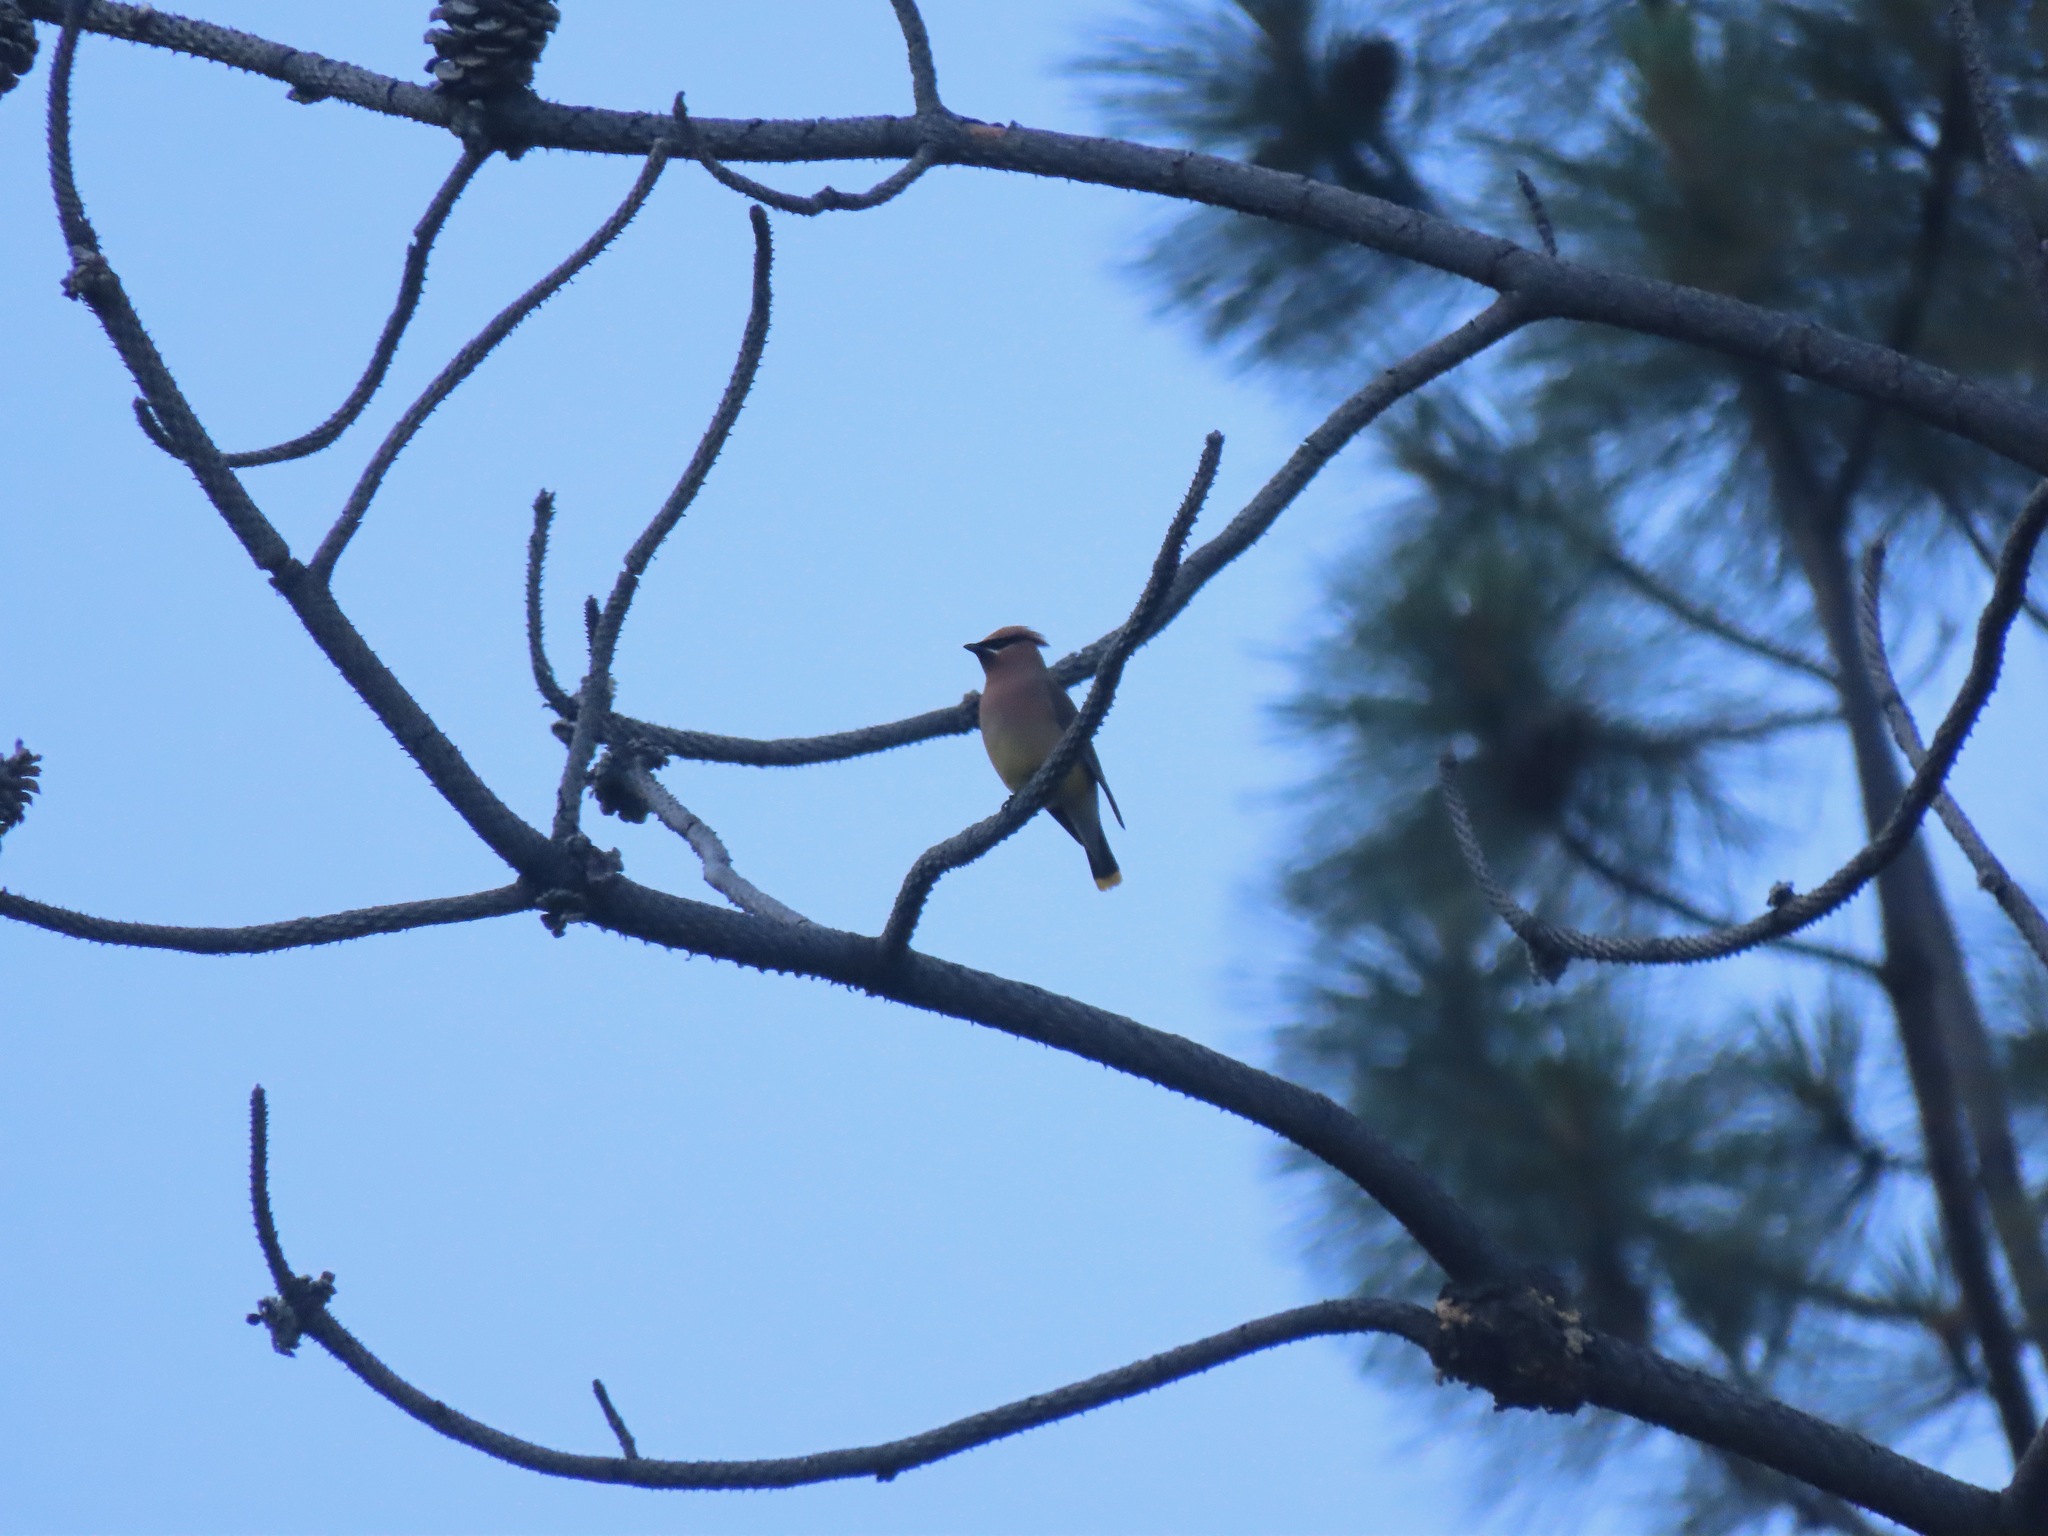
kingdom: Animalia
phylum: Chordata
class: Aves
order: Passeriformes
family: Bombycillidae
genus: Bombycilla
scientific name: Bombycilla cedrorum
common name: Cedar waxwing
